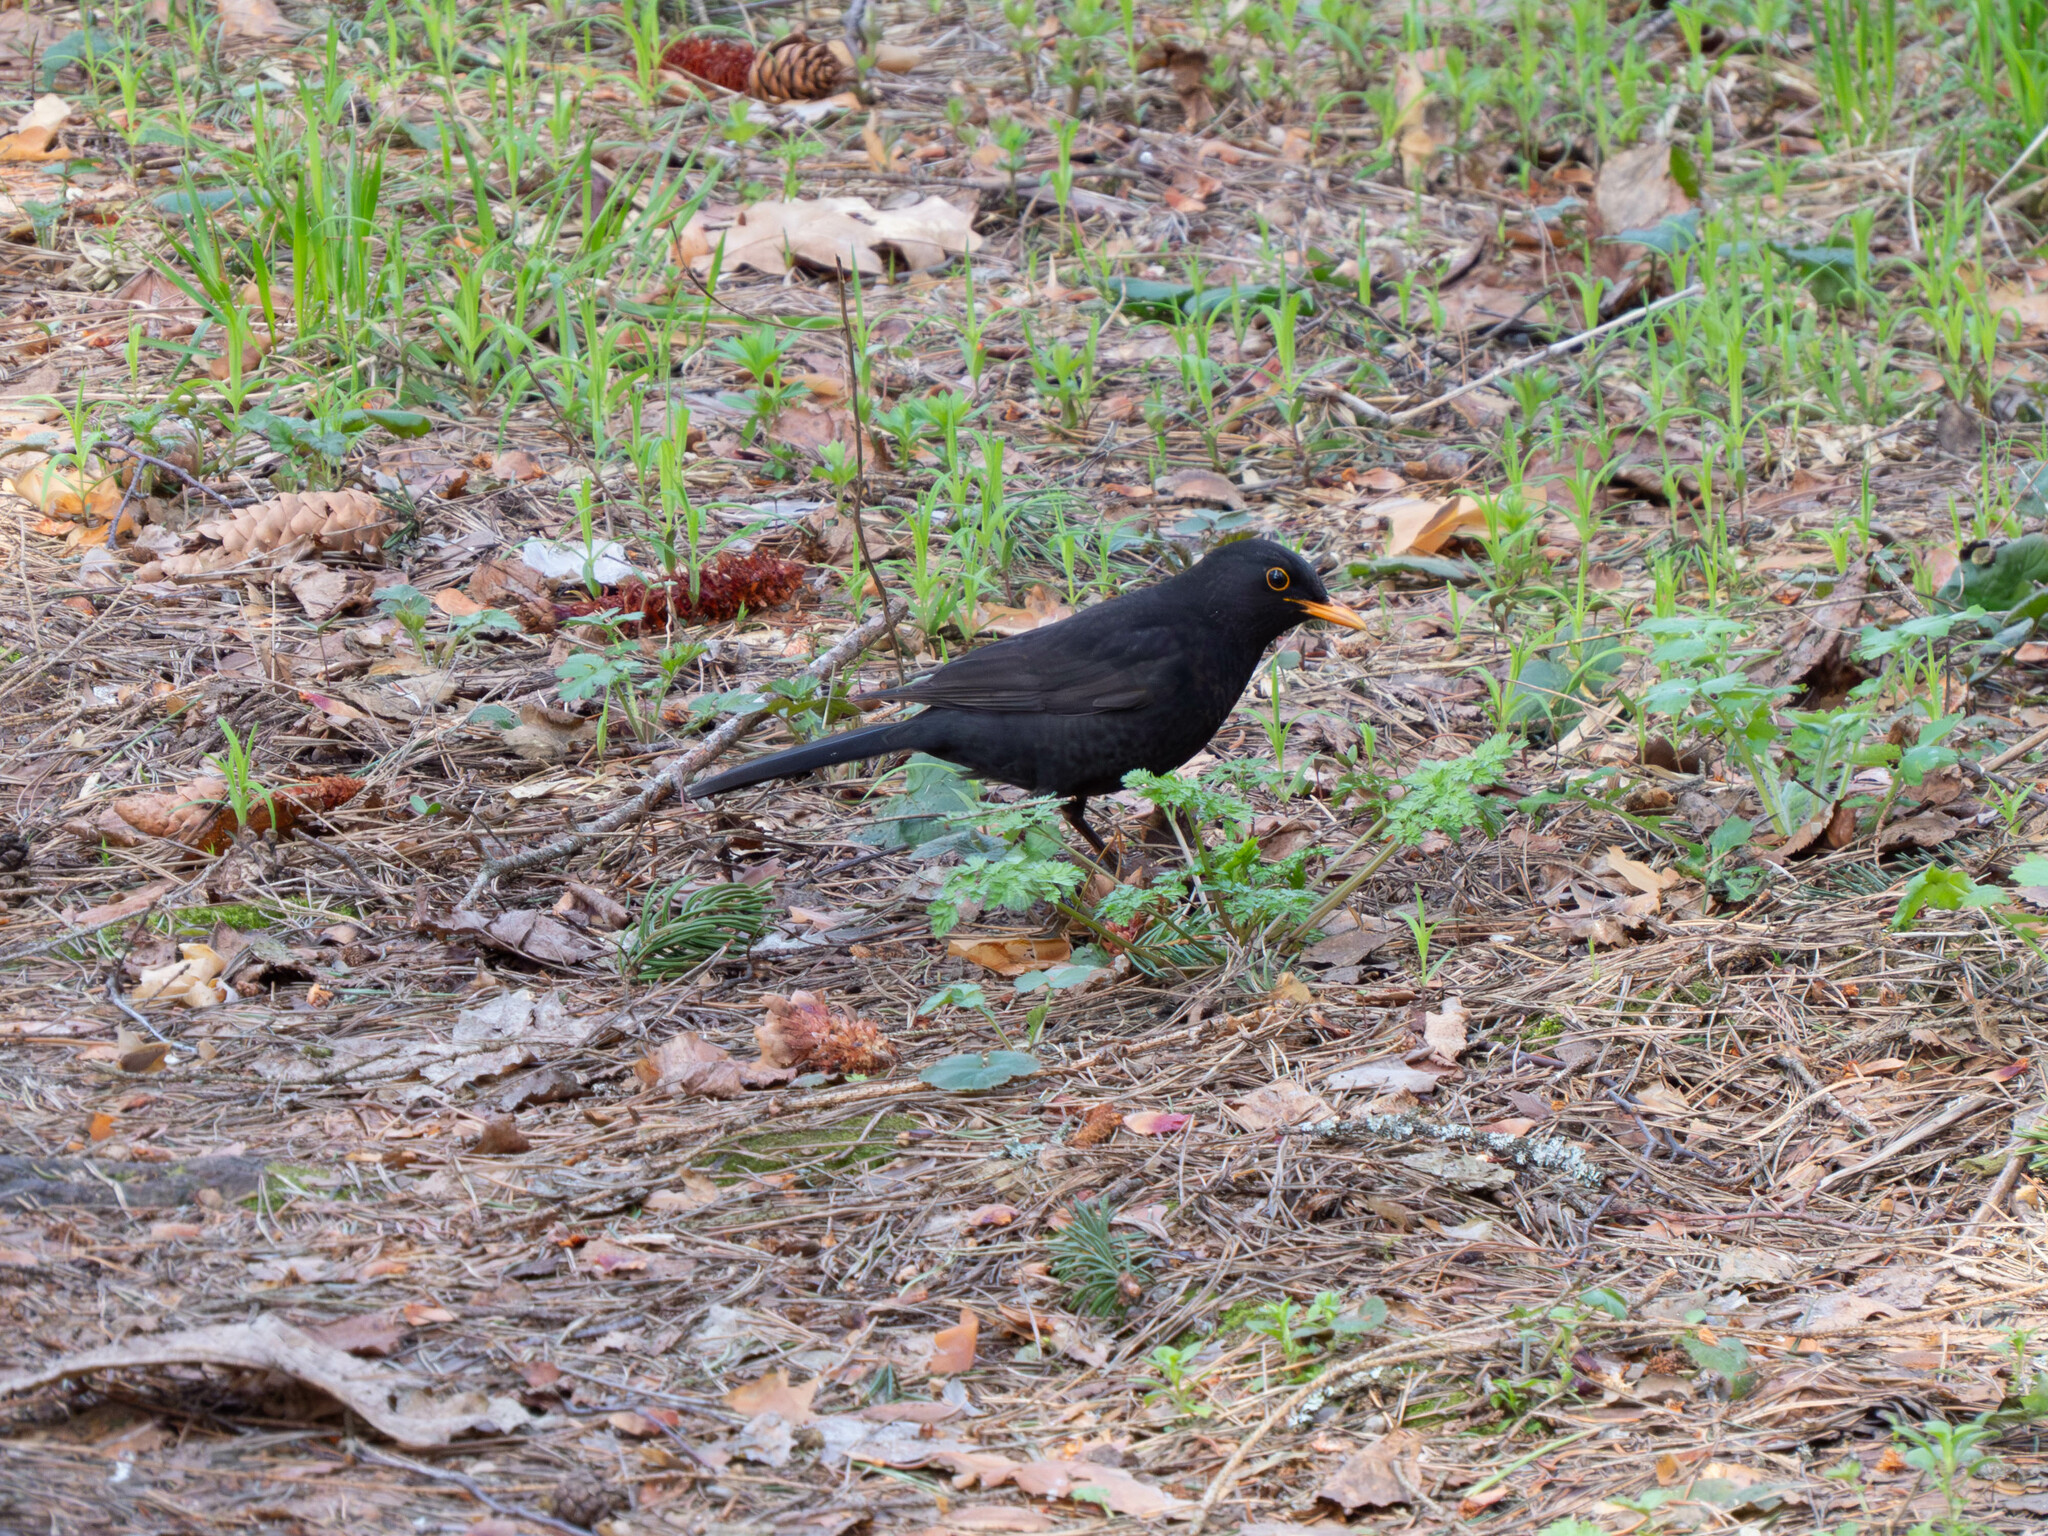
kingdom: Animalia
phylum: Chordata
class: Aves
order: Passeriformes
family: Turdidae
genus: Turdus
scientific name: Turdus merula
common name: Common blackbird
